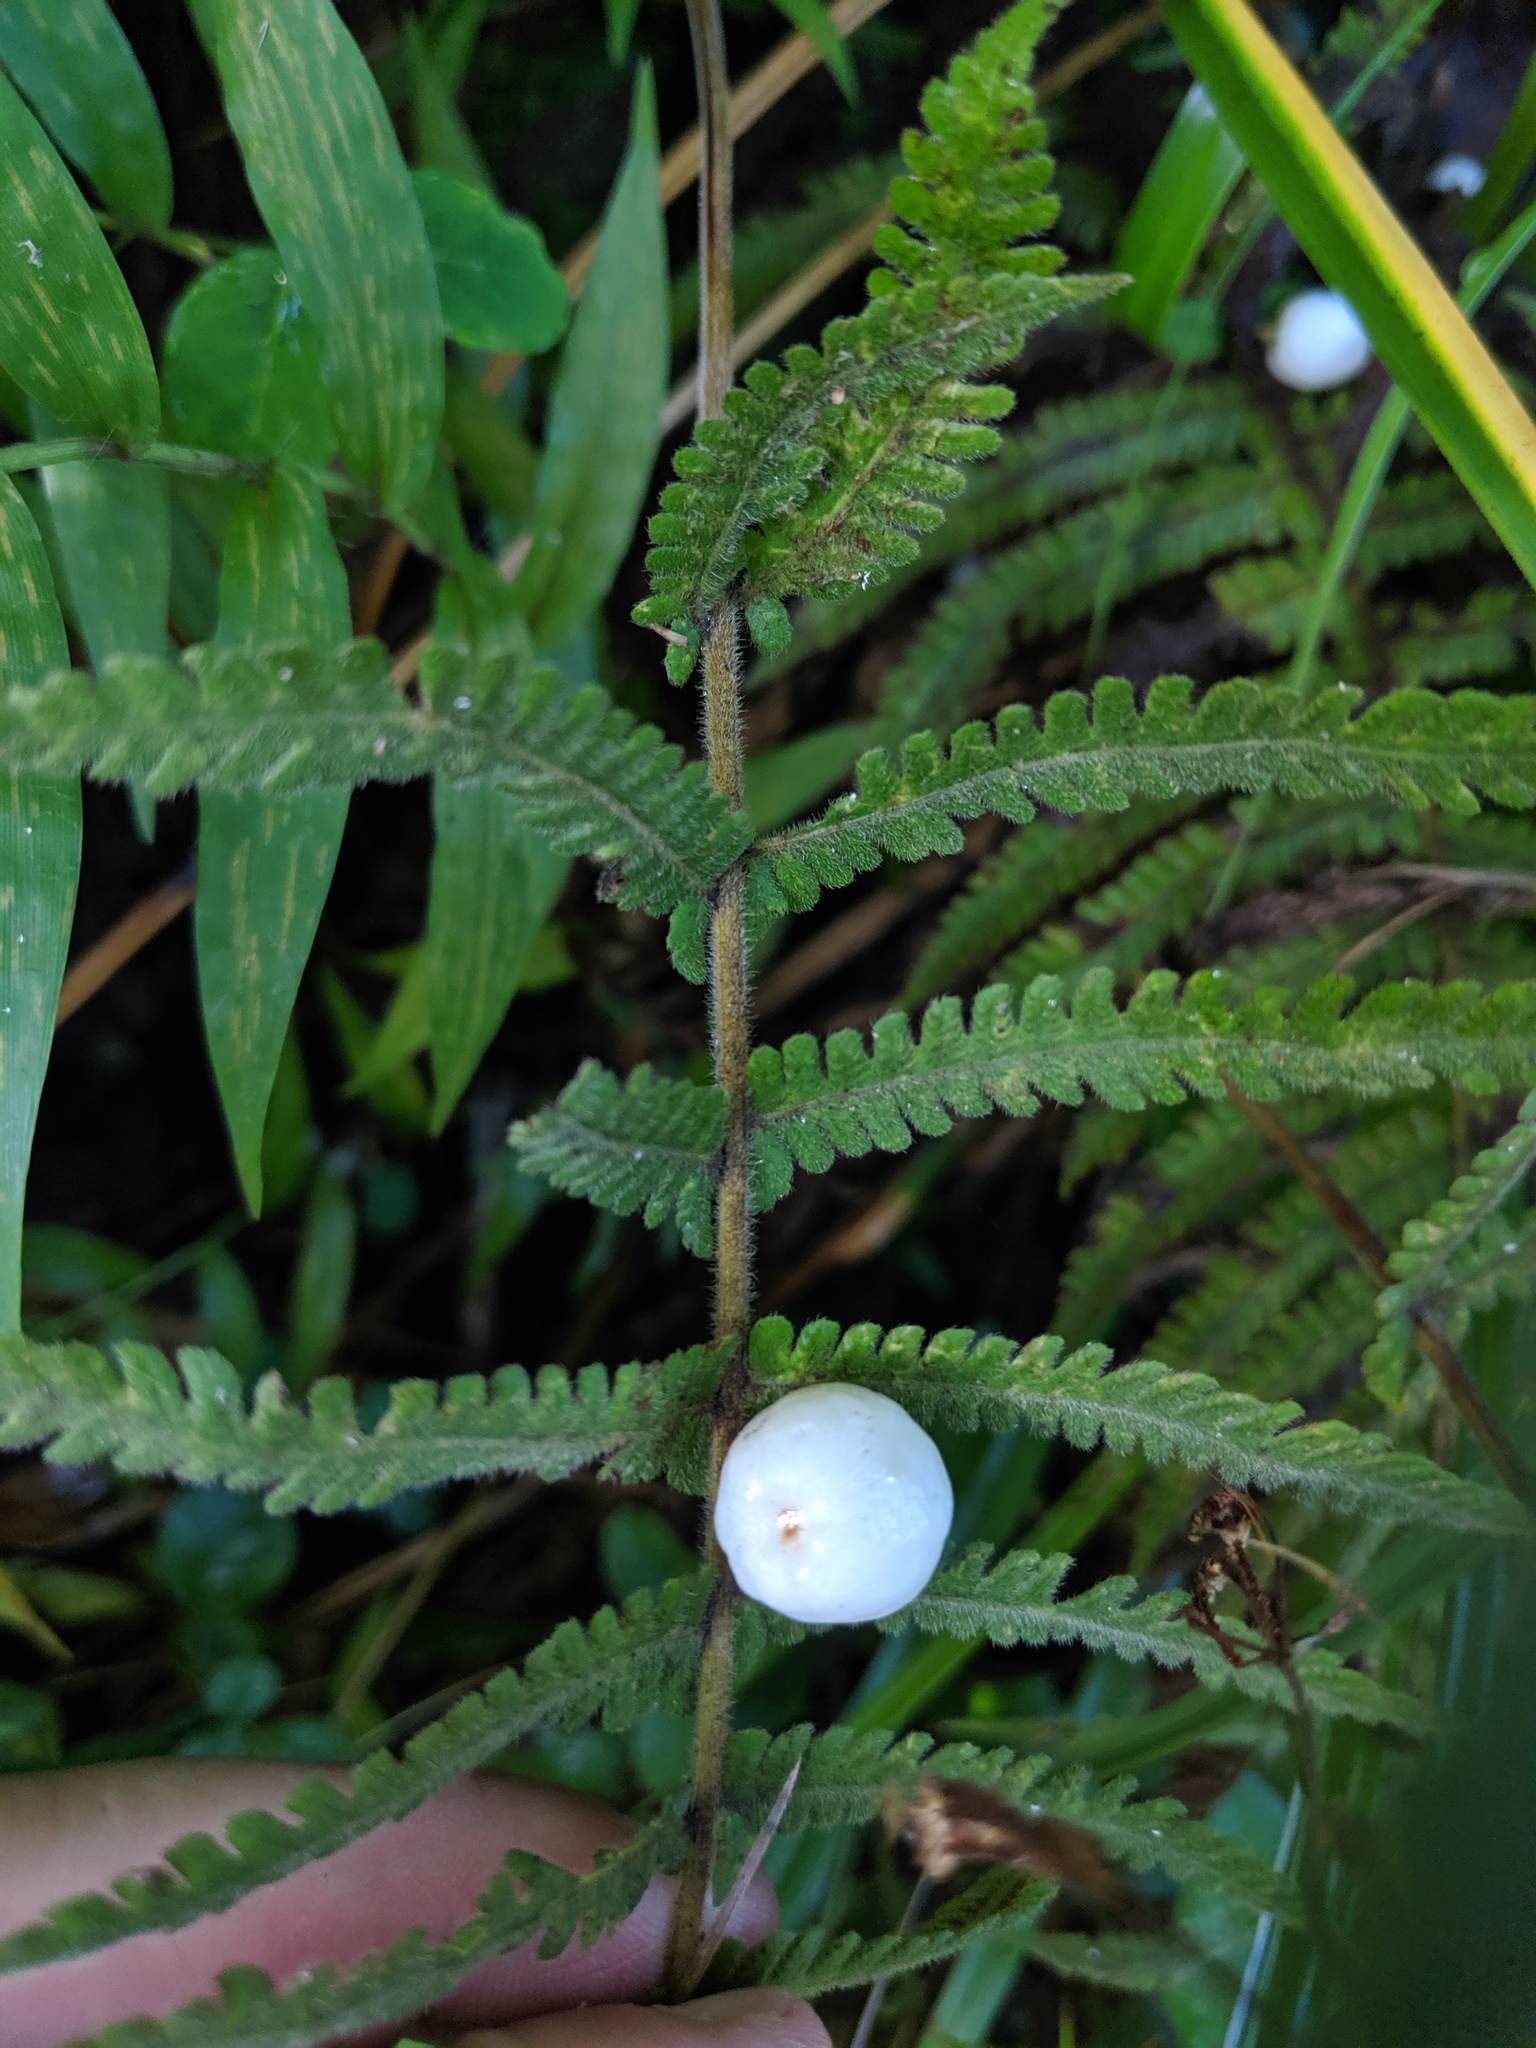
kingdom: Plantae
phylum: Tracheophyta
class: Magnoliopsida
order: Asterales
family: Goodeniaceae
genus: Scaevola
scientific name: Scaevola taccada
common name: Sea lettucetree
